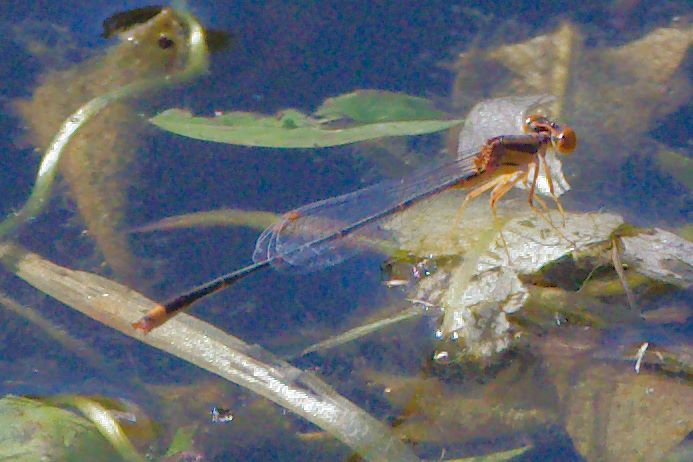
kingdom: Animalia
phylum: Arthropoda
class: Insecta
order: Odonata
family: Coenagrionidae
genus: Enallagma
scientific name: Enallagma pollutum
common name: Florida bluet
